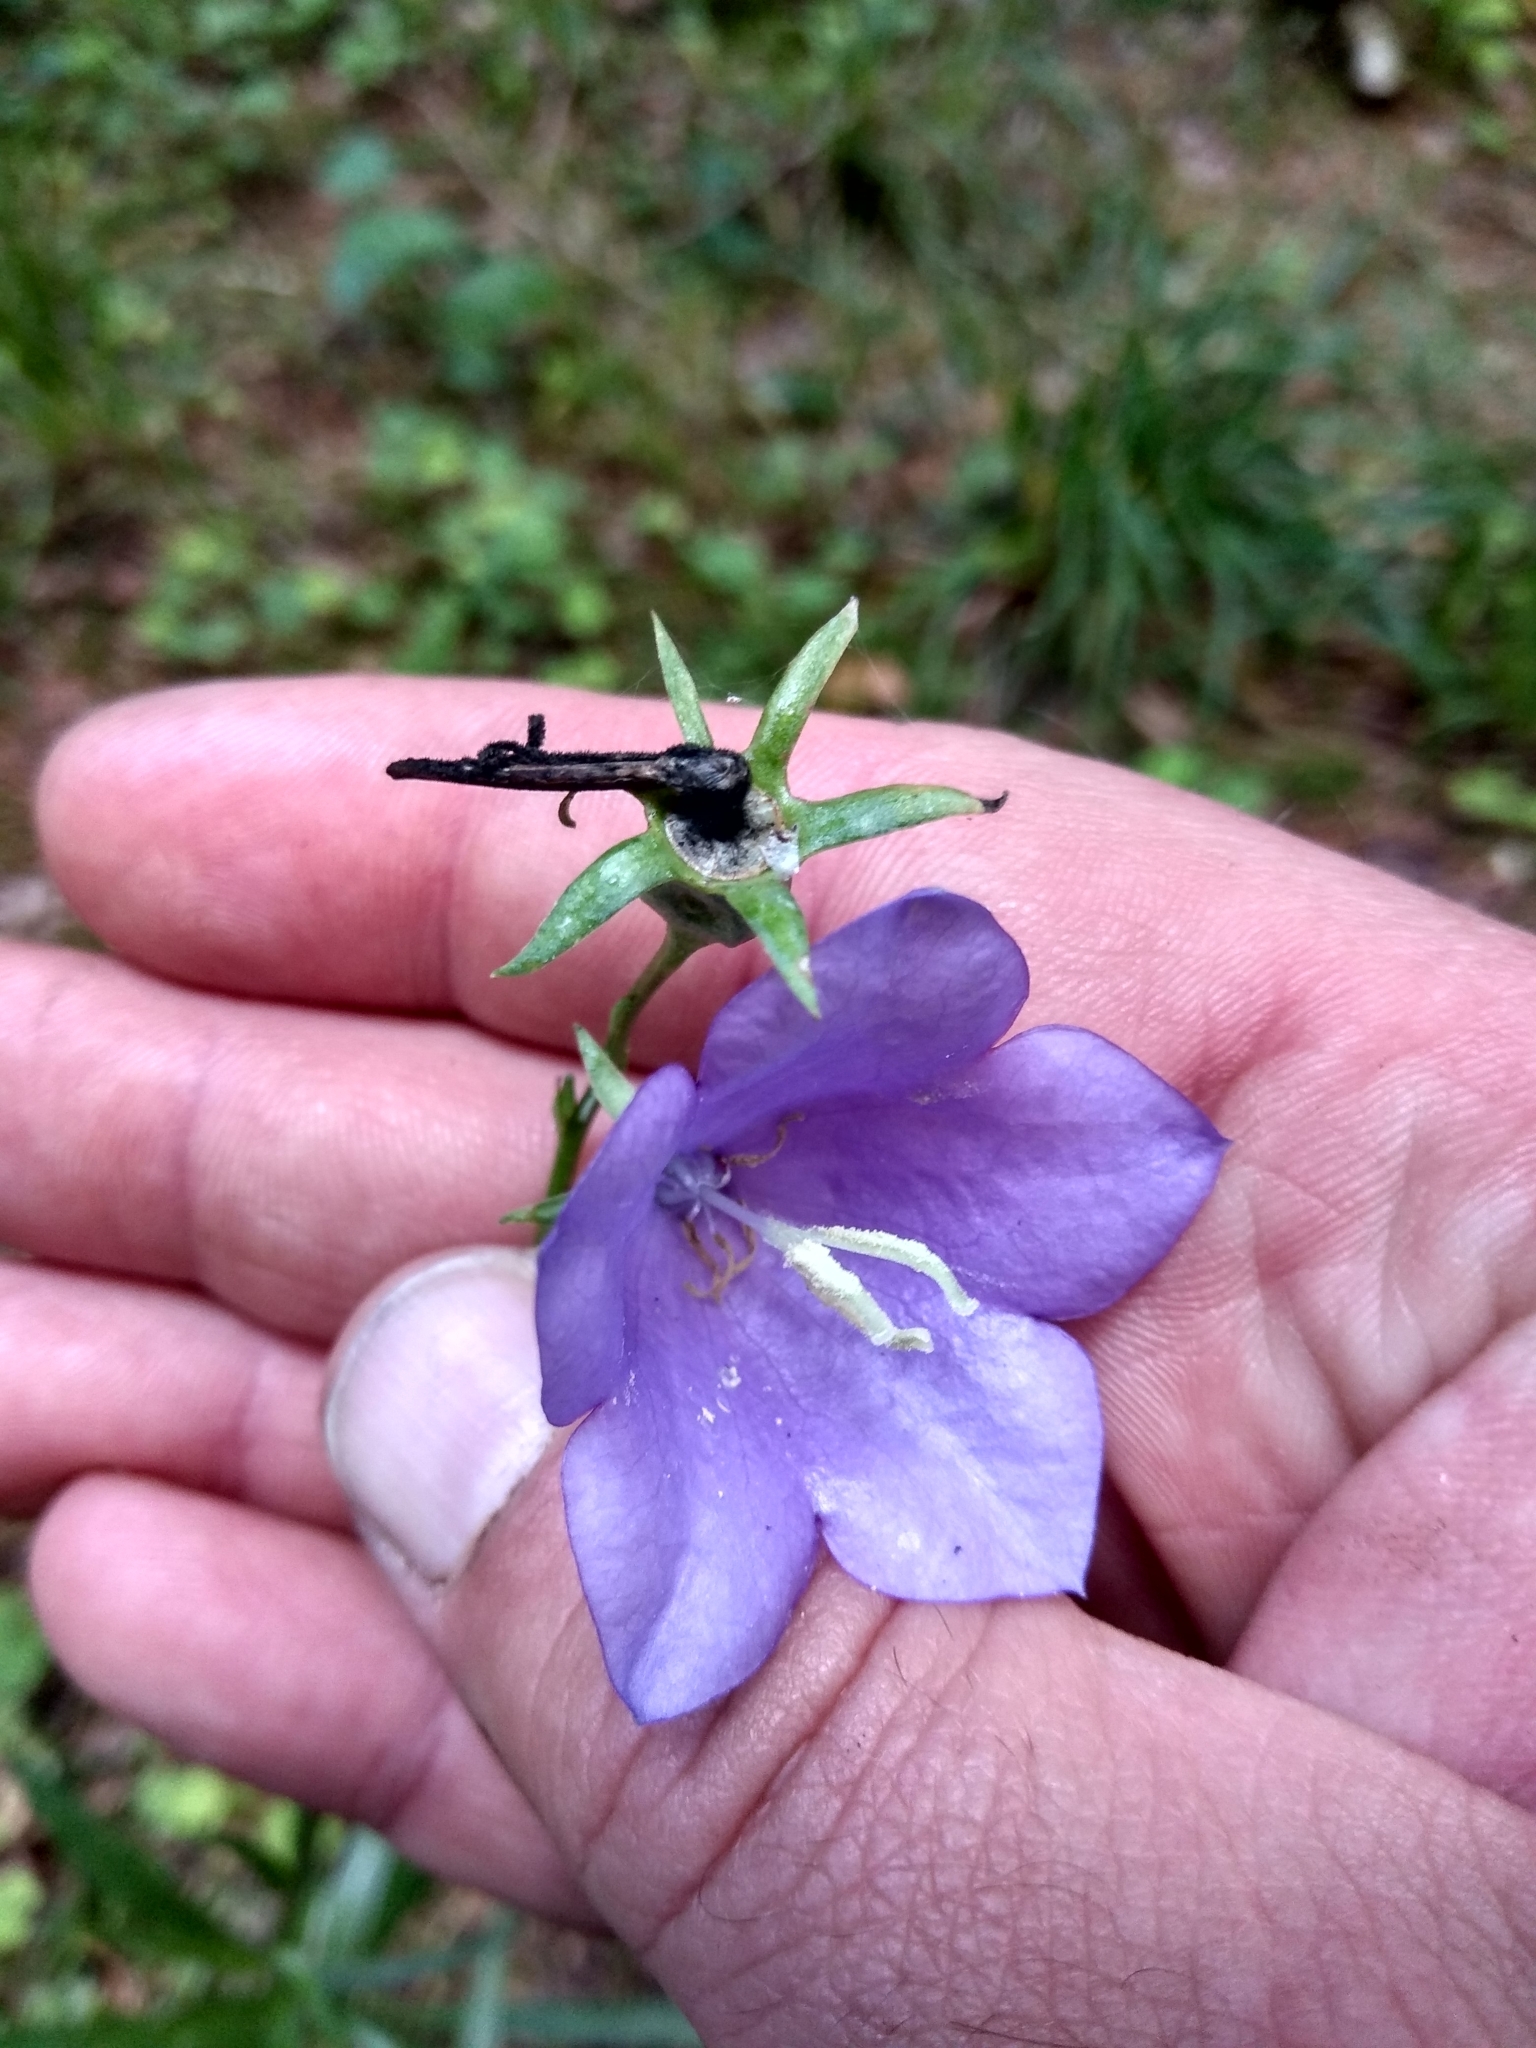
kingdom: Plantae
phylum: Tracheophyta
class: Magnoliopsida
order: Asterales
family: Campanulaceae
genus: Campanula
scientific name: Campanula persicifolia
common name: Peach-leaved bellflower
